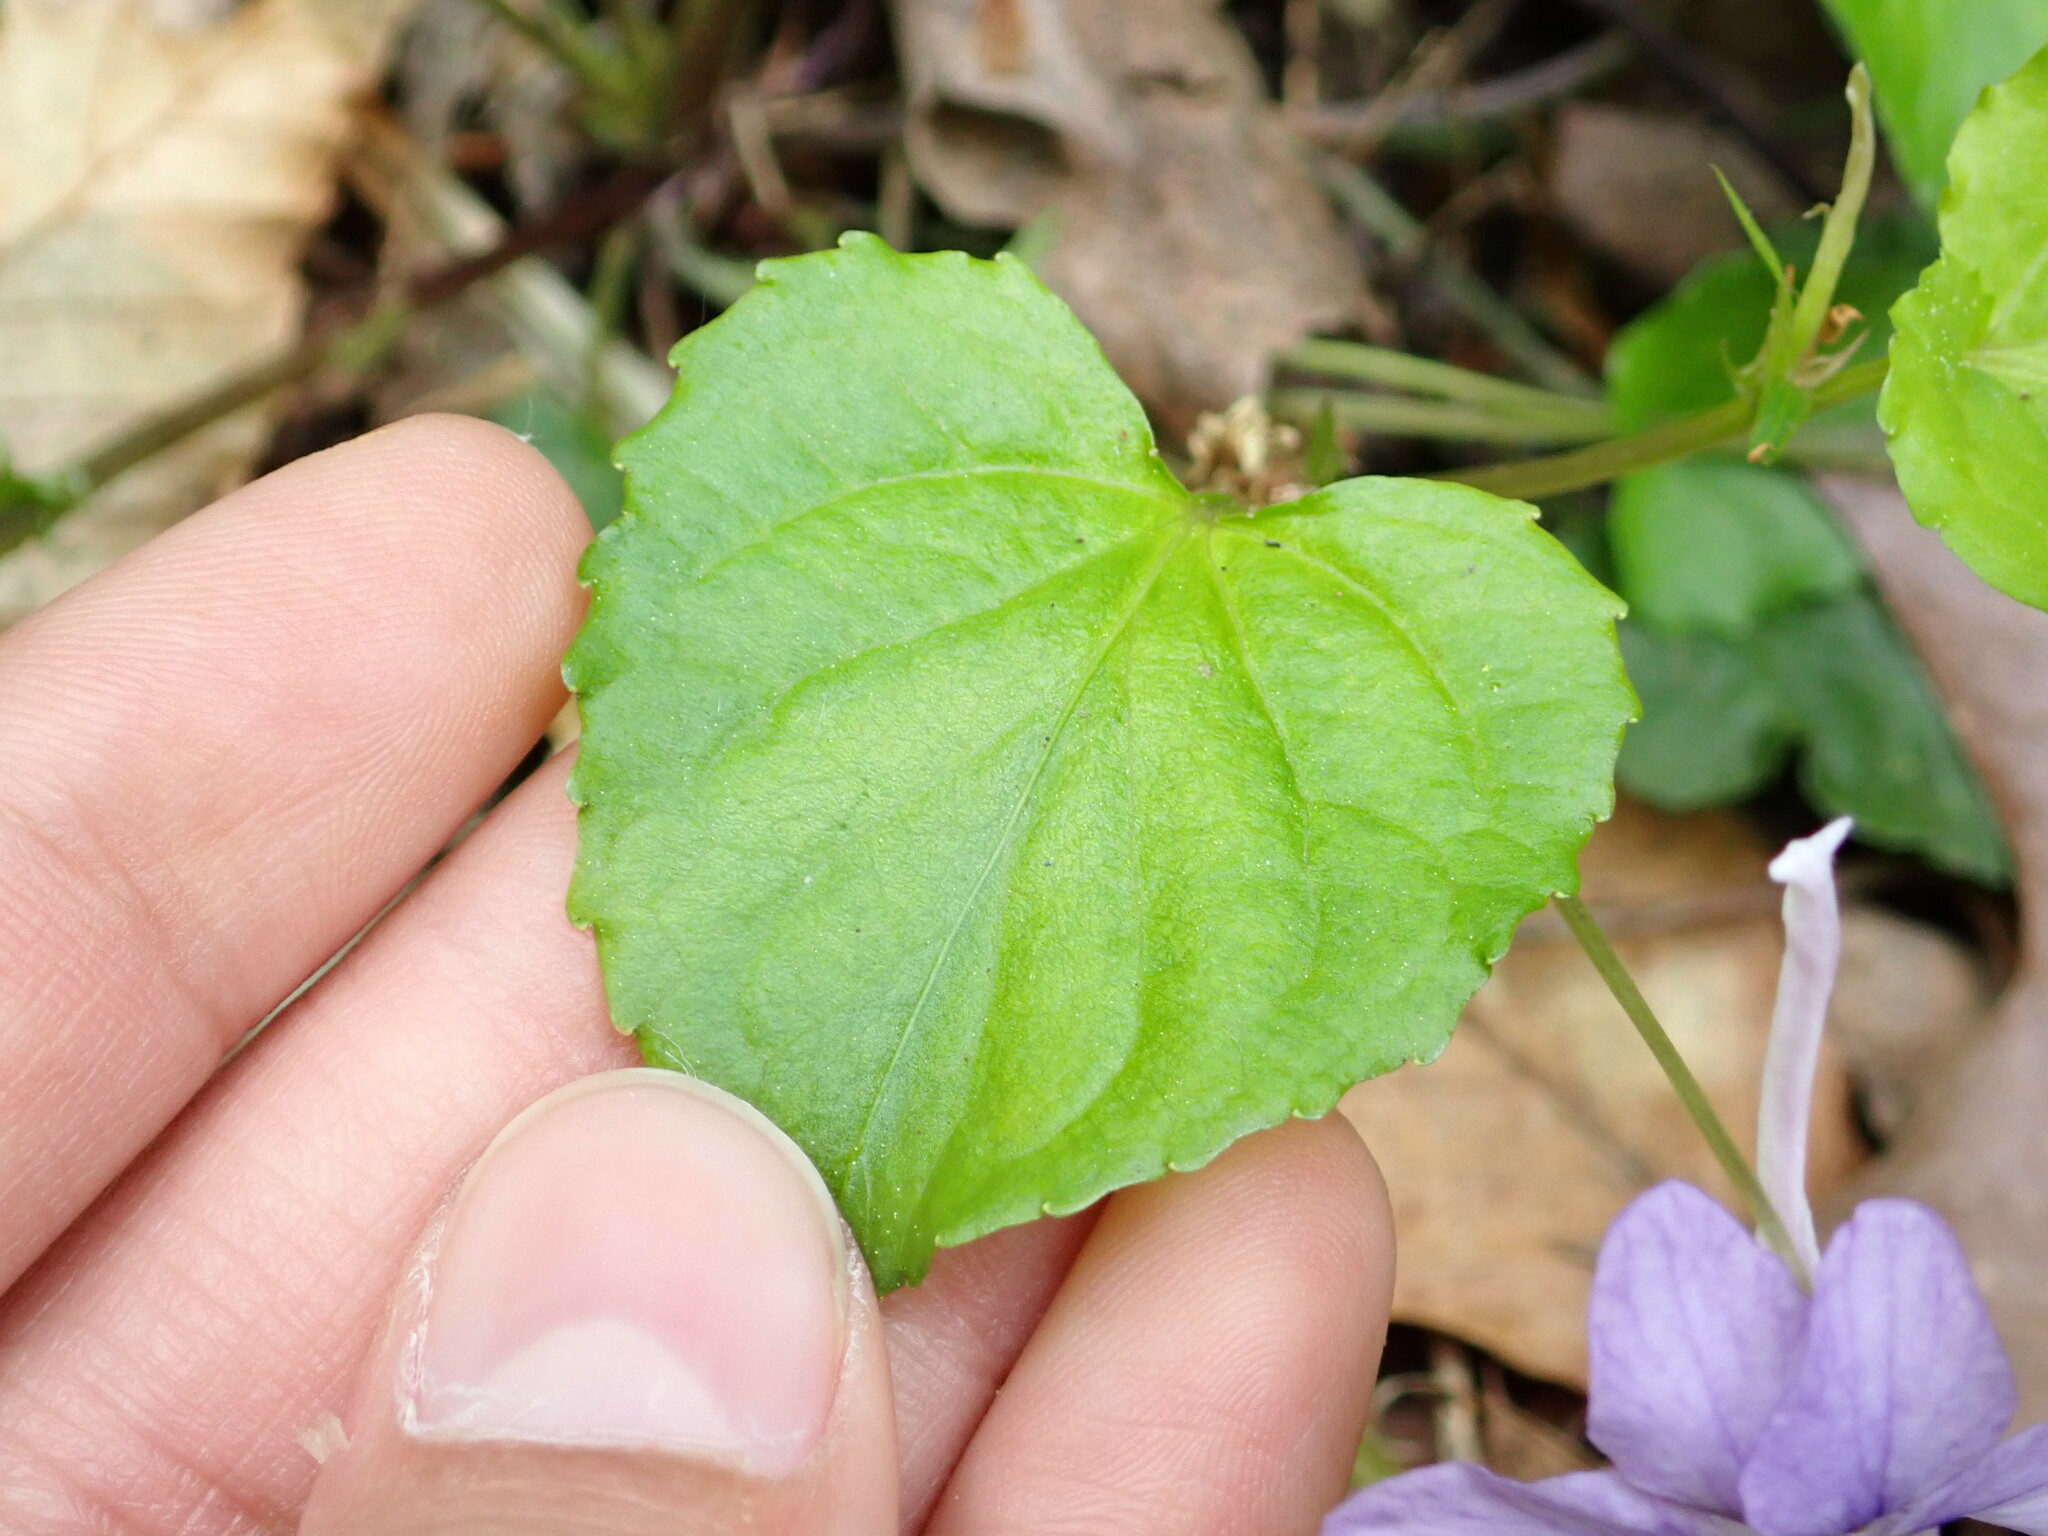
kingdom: Plantae
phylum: Tracheophyta
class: Magnoliopsida
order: Malpighiales
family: Violaceae
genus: Viola
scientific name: Viola rostrata
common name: Long-spur violet
